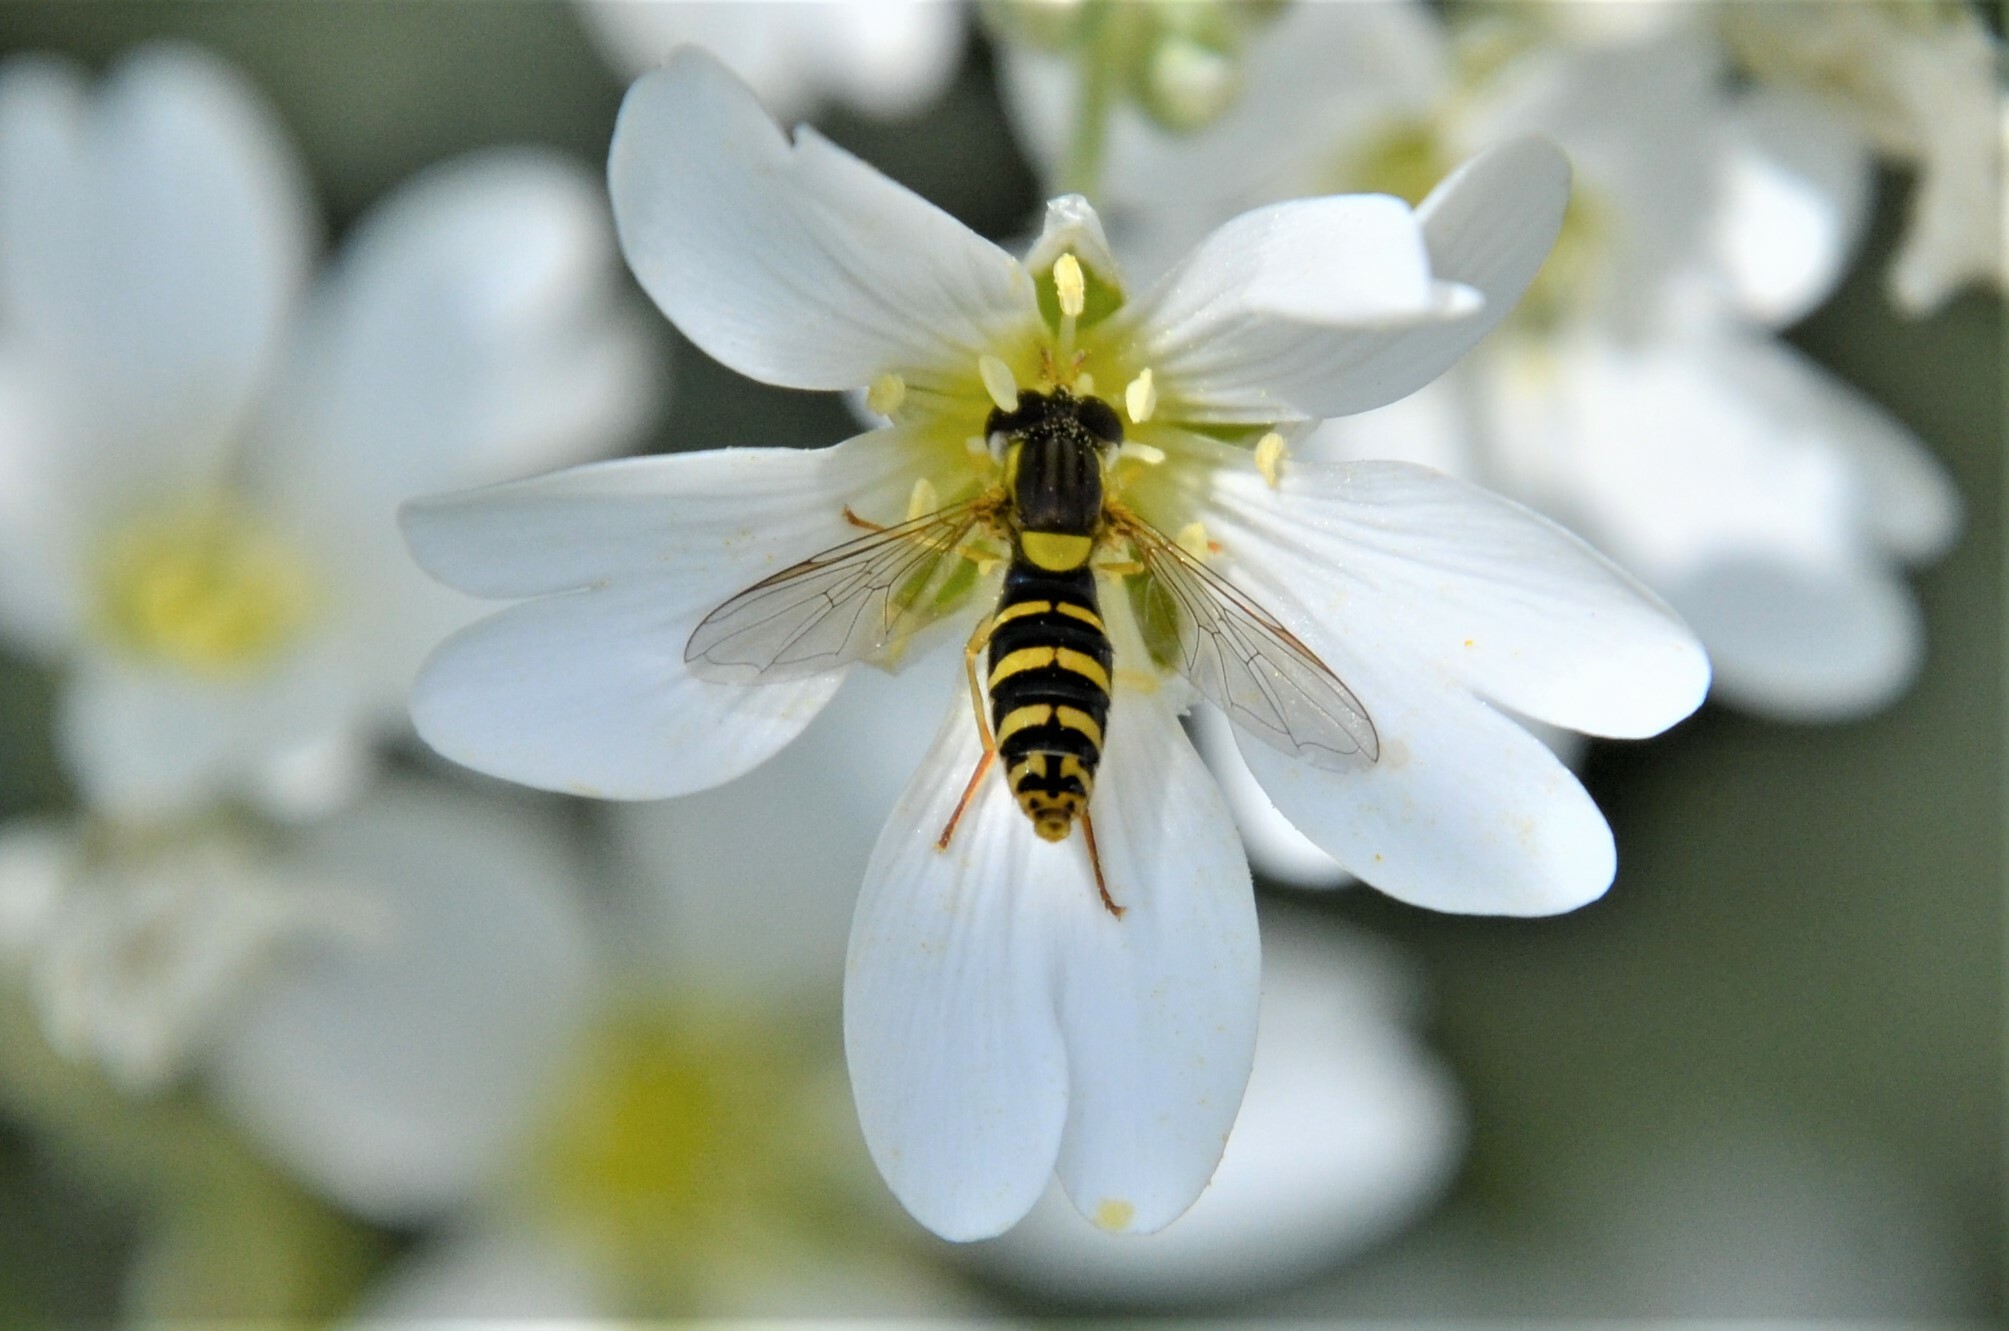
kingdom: Animalia
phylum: Arthropoda
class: Insecta
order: Diptera
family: Syrphidae
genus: Sphaerophoria
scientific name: Sphaerophoria
